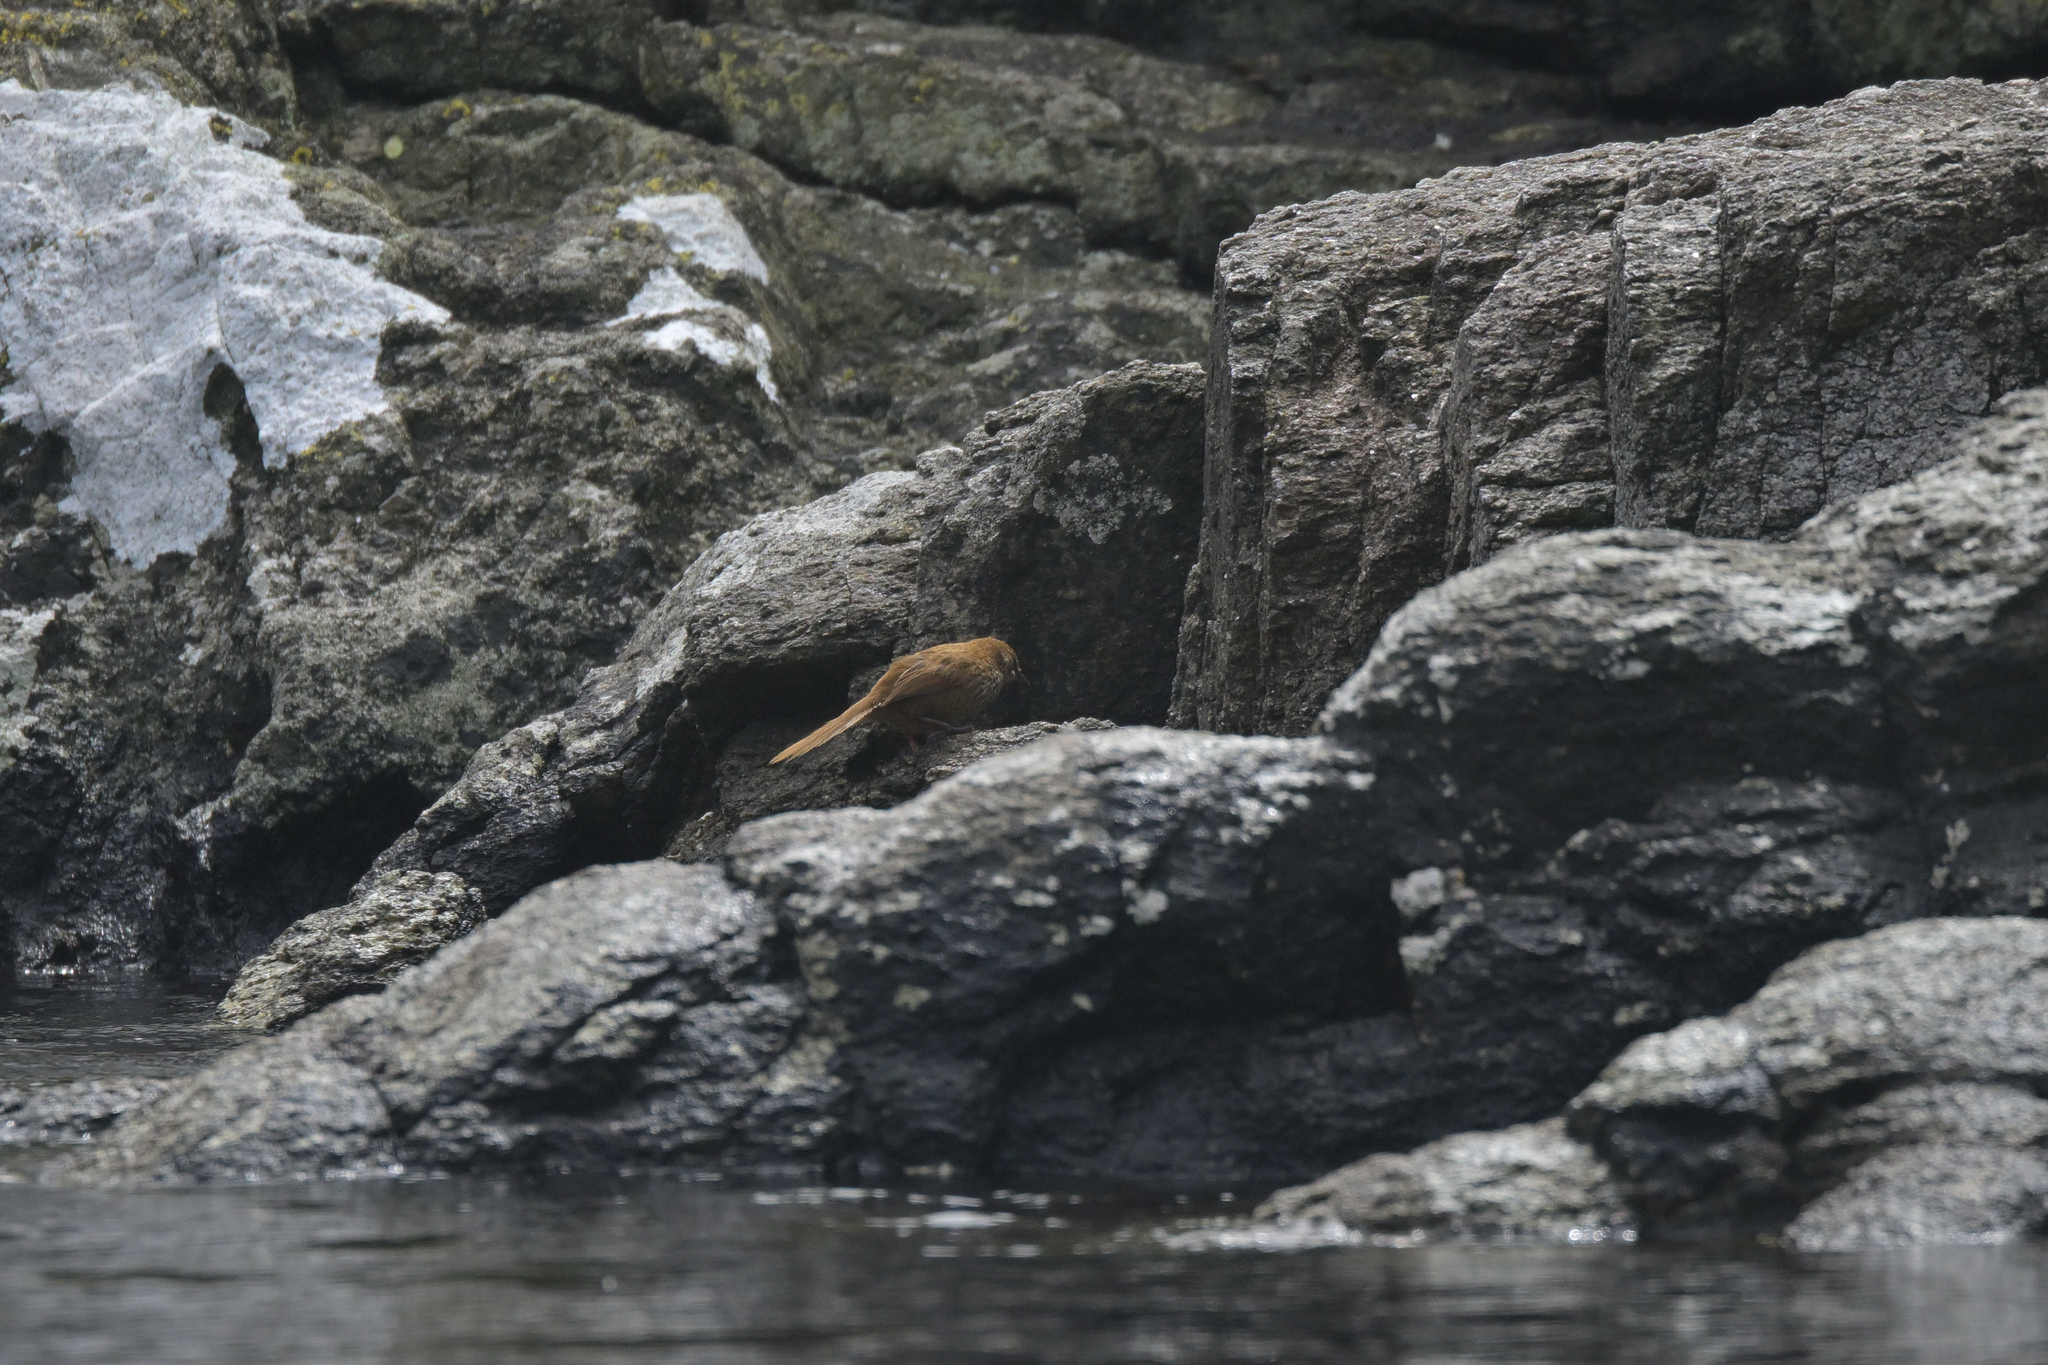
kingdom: Animalia
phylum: Chordata
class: Aves
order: Passeriformes
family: Locustellidae
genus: Megalurus
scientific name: Megalurus punctatus
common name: New zealand fernbird
